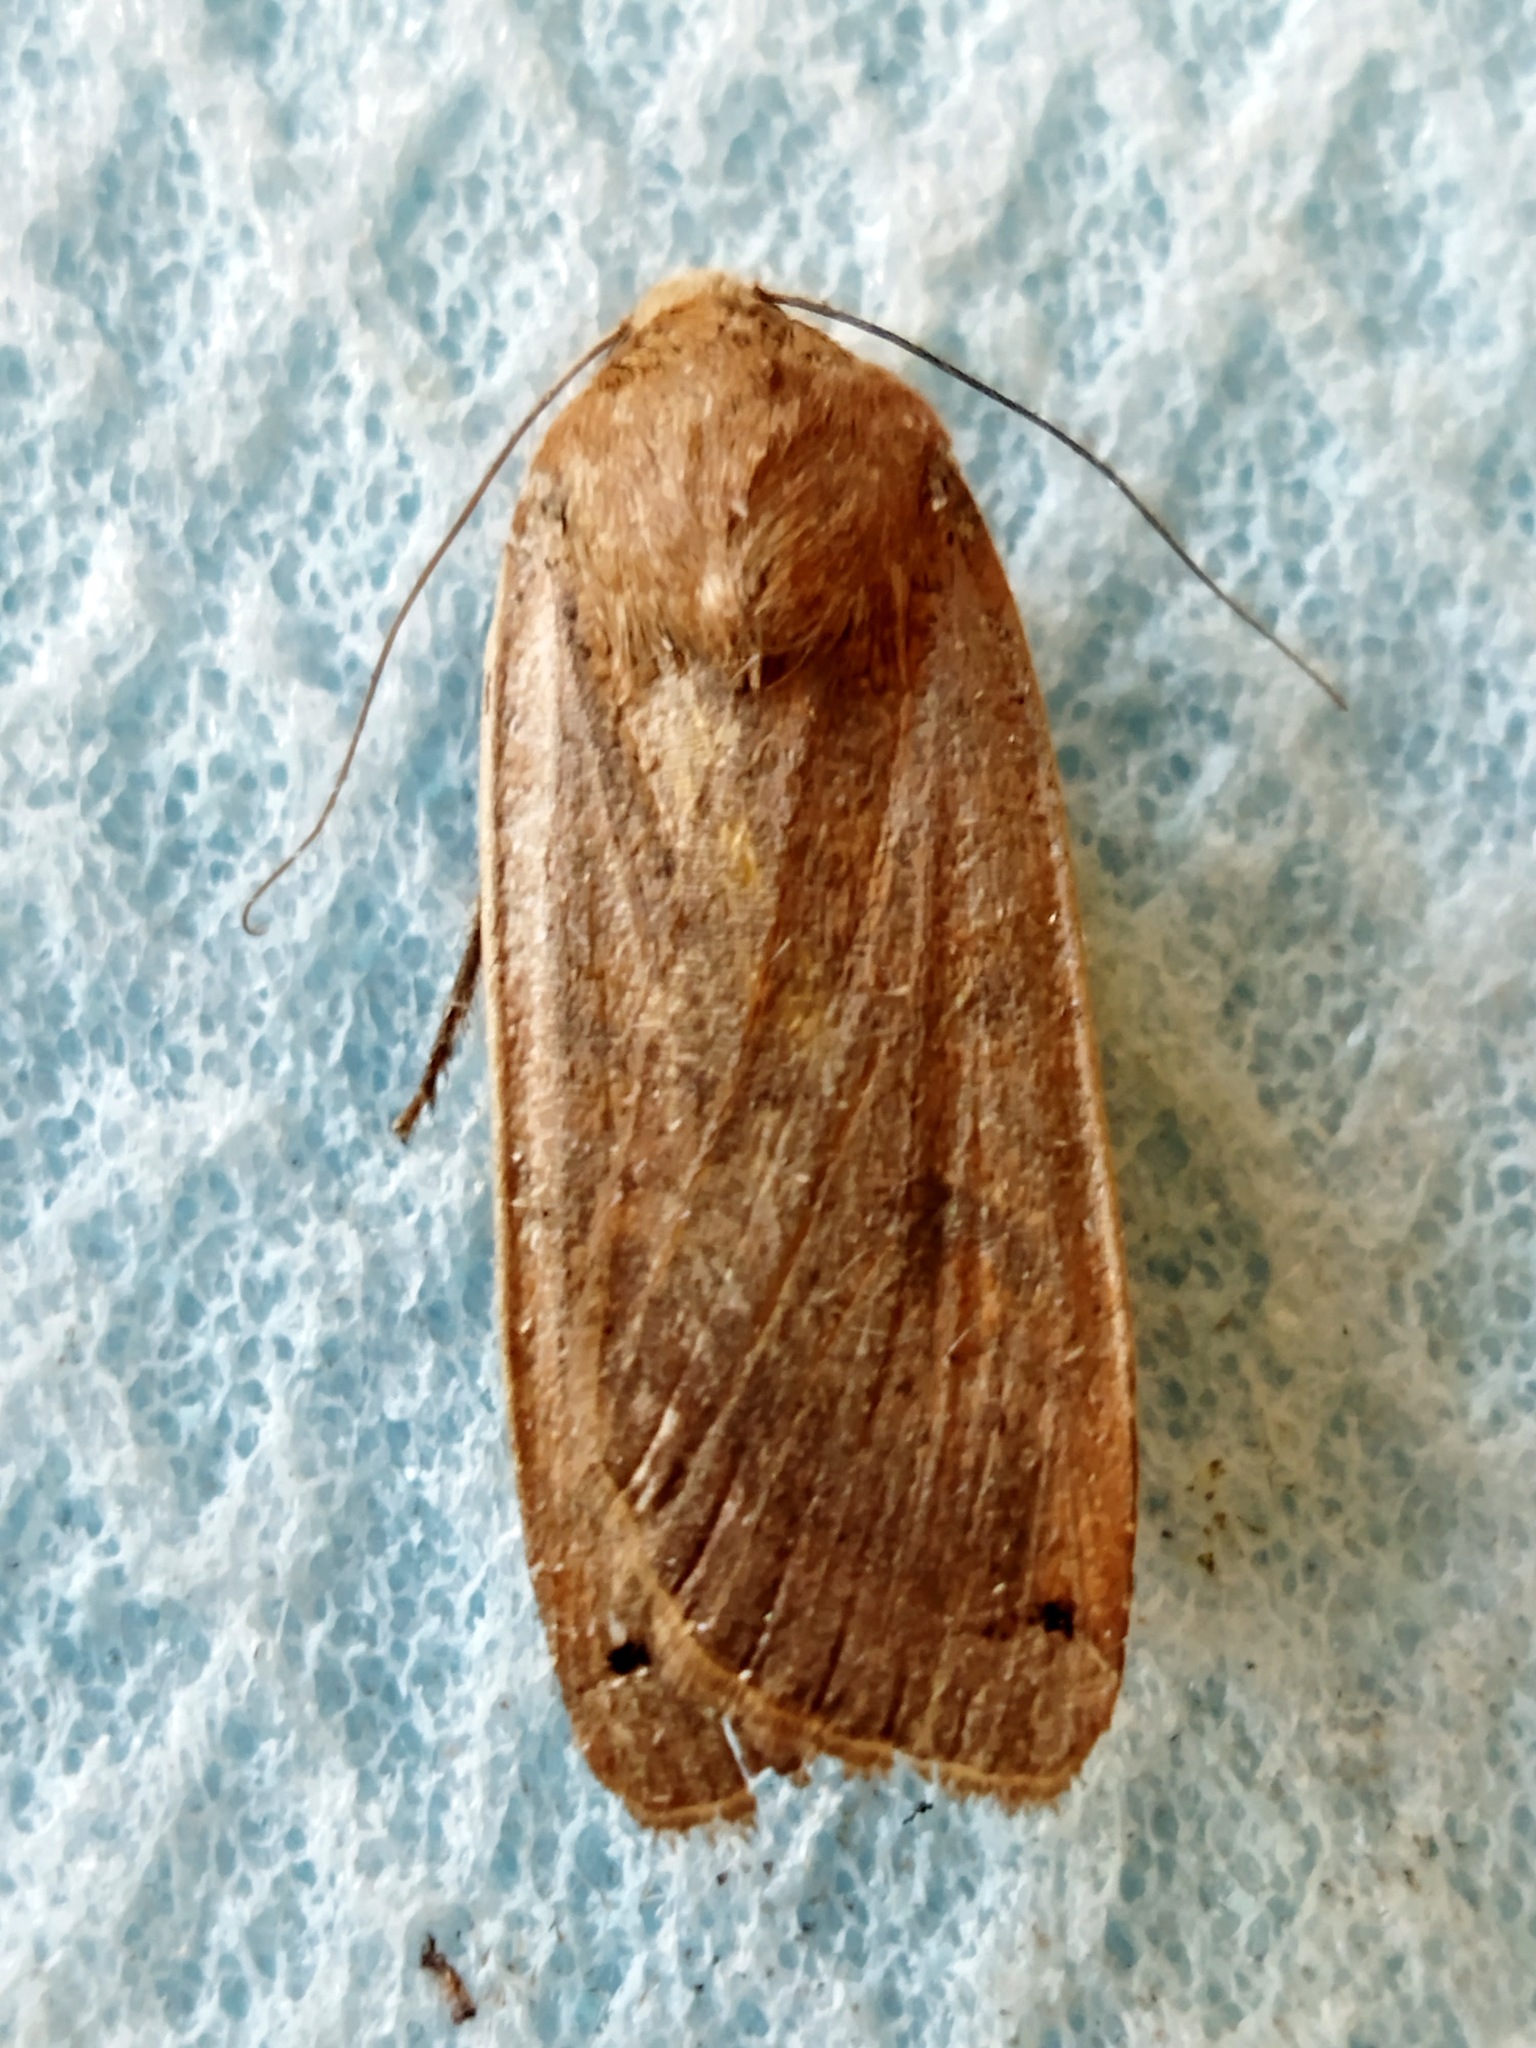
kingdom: Animalia
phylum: Arthropoda
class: Insecta
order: Lepidoptera
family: Noctuidae
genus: Noctua
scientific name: Noctua pronuba
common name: Large yellow underwing
